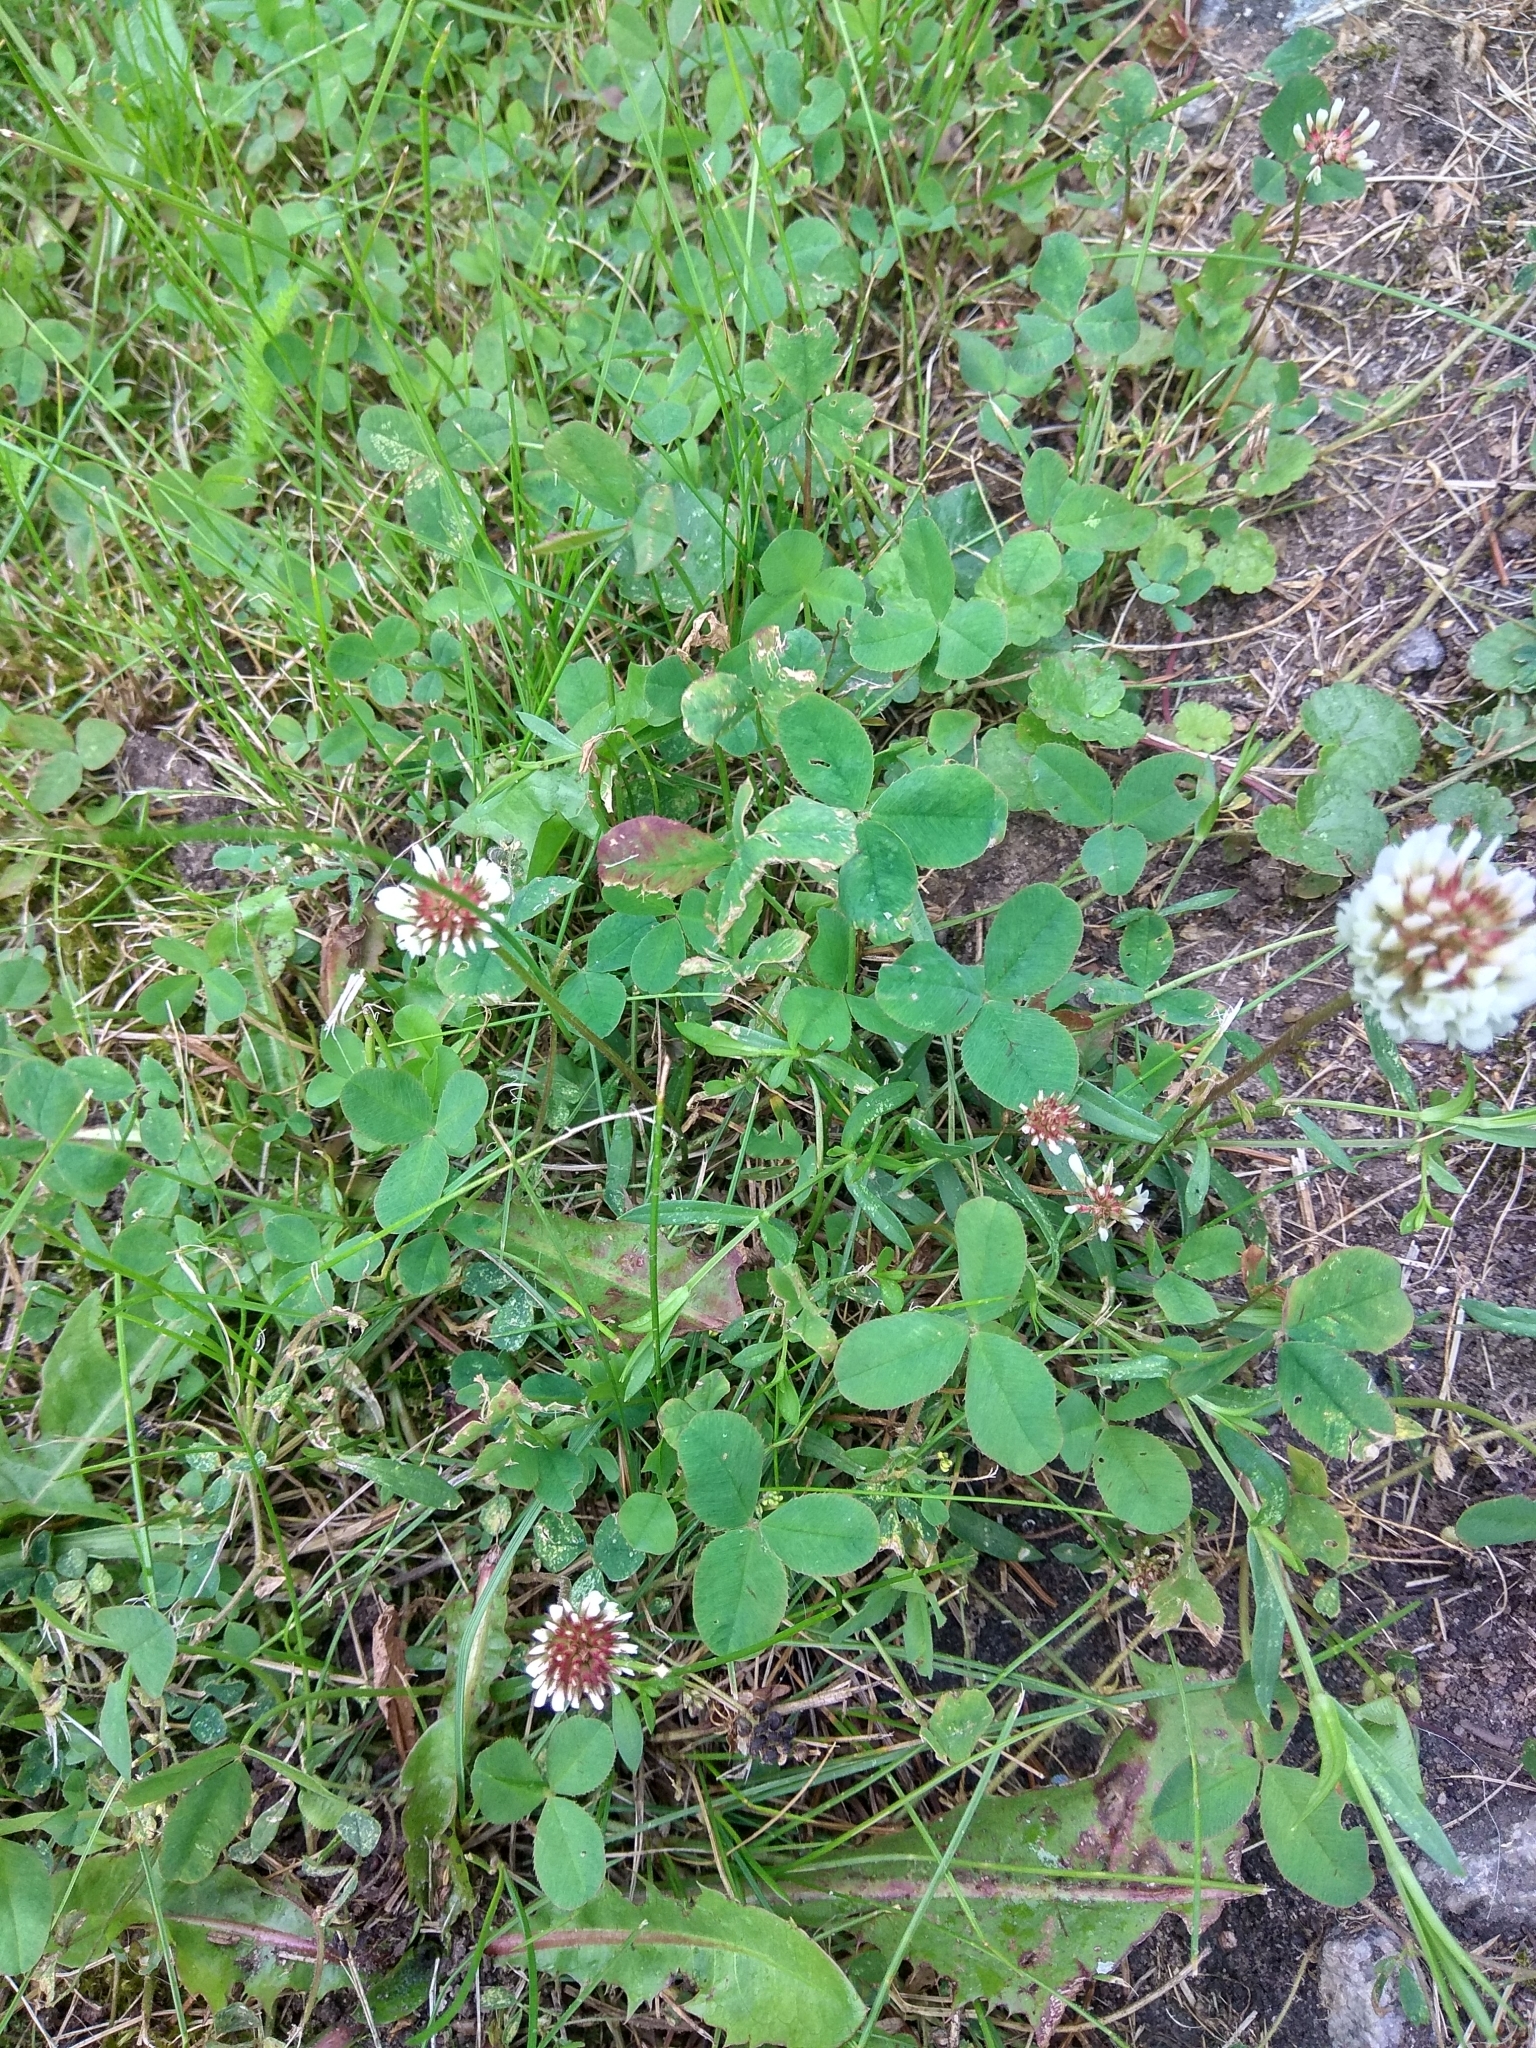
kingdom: Plantae
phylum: Tracheophyta
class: Magnoliopsida
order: Fabales
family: Fabaceae
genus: Trifolium
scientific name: Trifolium repens
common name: White clover
